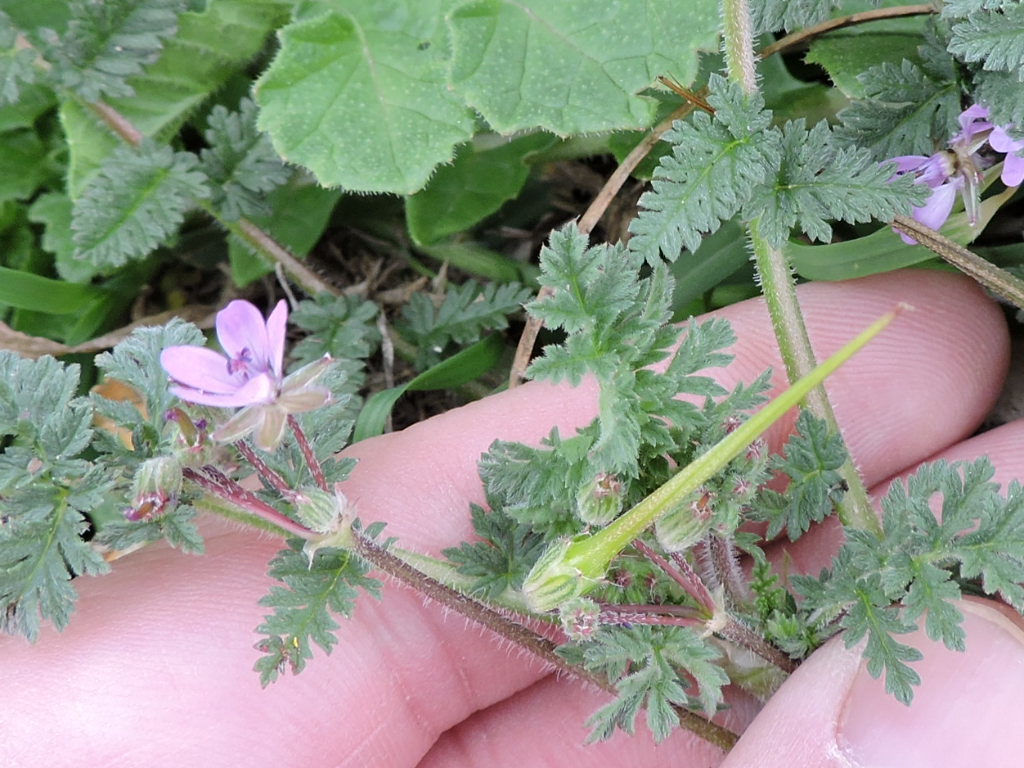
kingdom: Plantae
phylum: Tracheophyta
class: Magnoliopsida
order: Geraniales
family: Geraniaceae
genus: Erodium
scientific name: Erodium cicutarium
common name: Common stork's-bill
